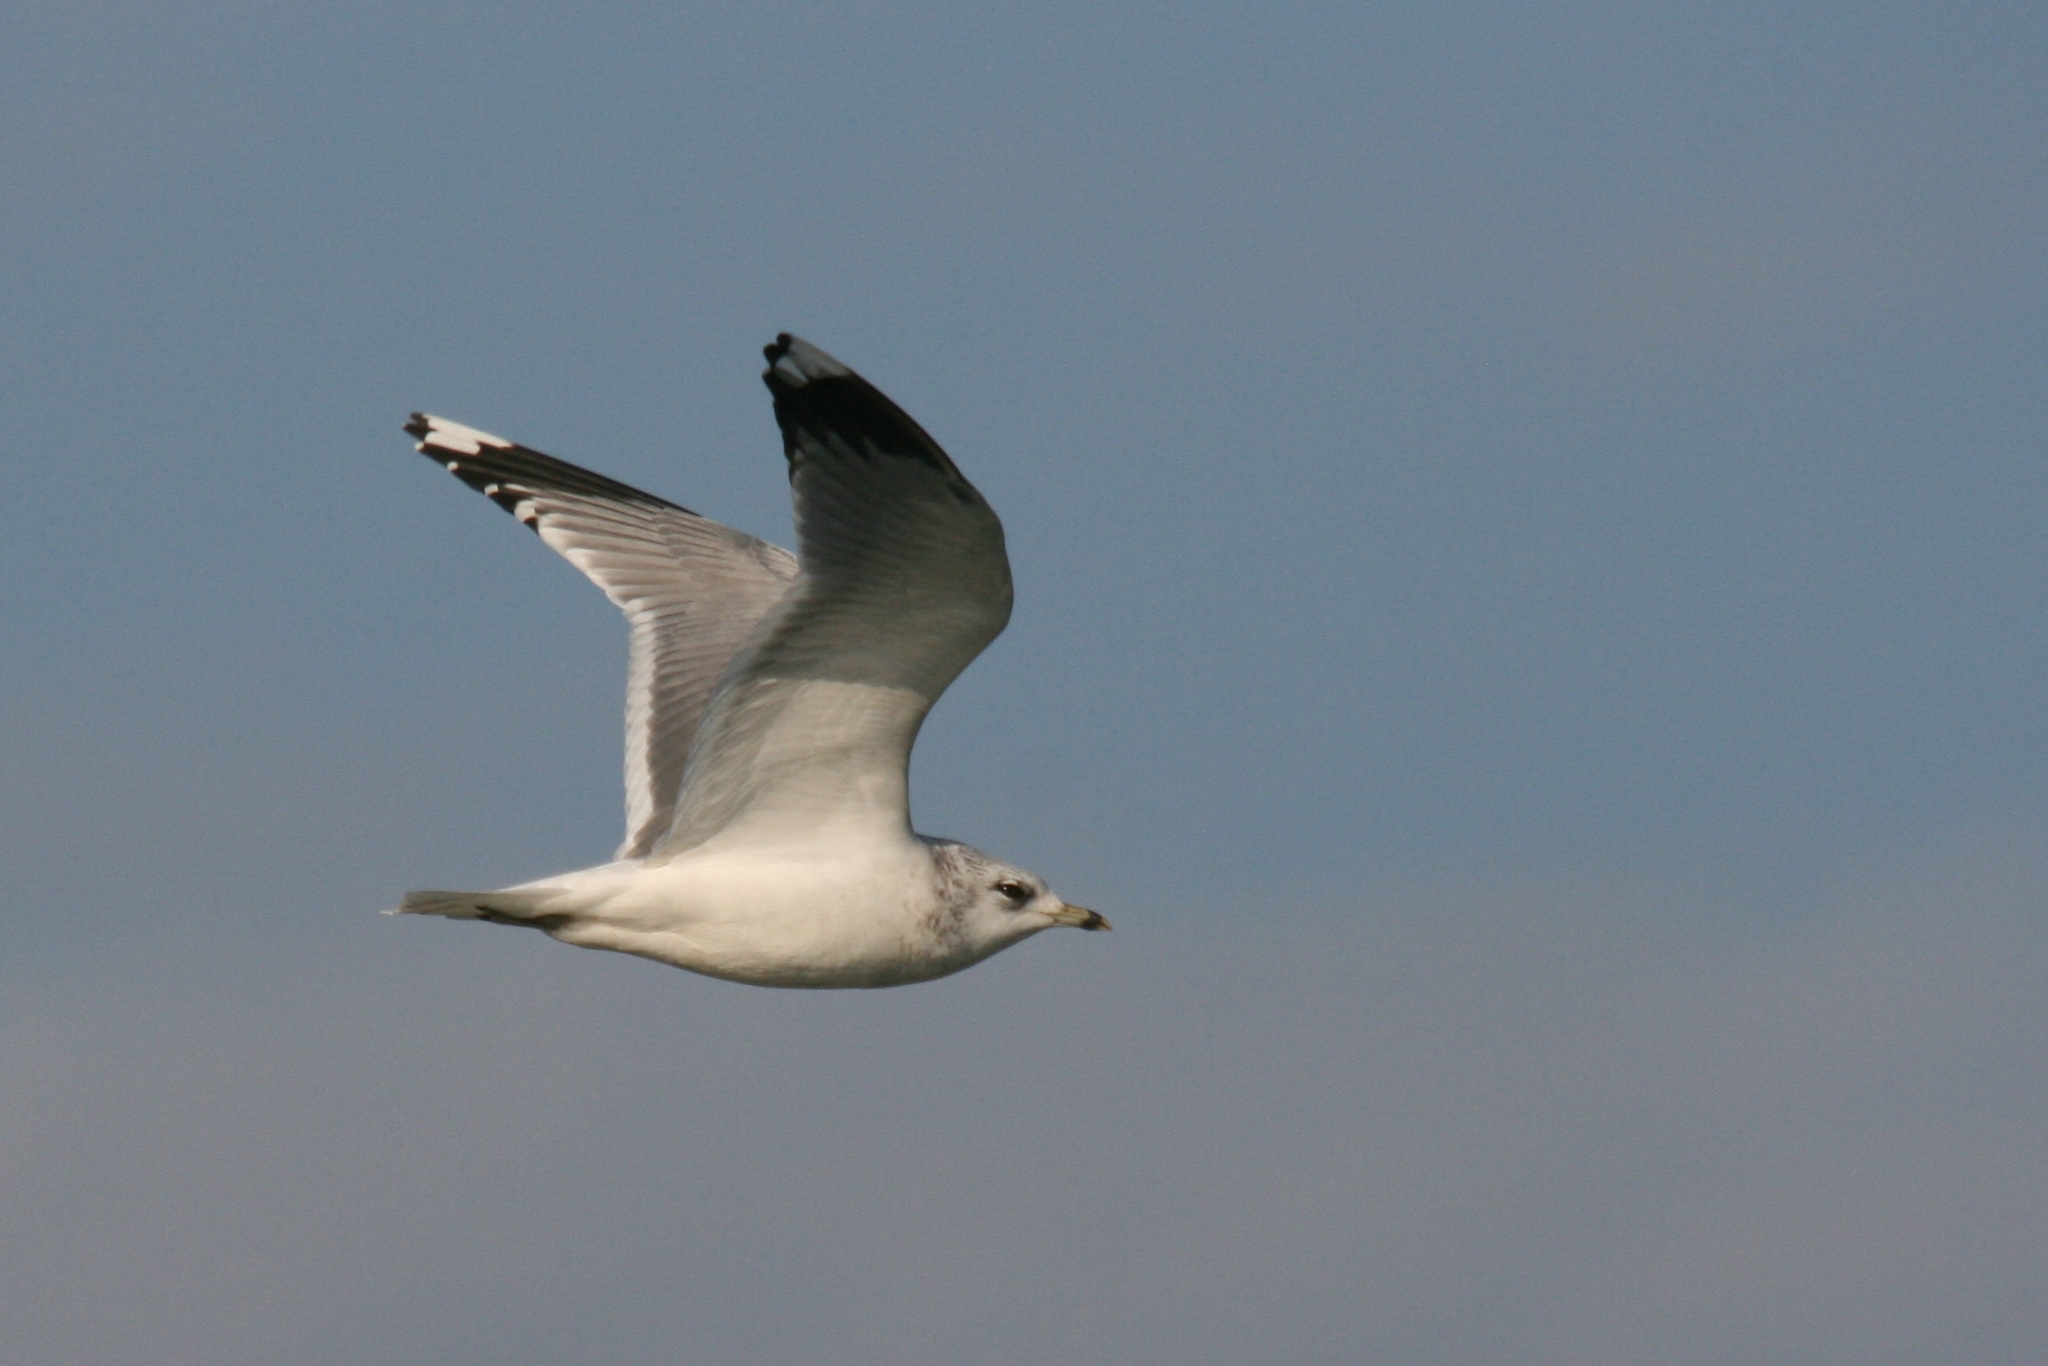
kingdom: Animalia
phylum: Chordata
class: Aves
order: Charadriiformes
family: Laridae
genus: Larus
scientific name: Larus canus
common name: Mew gull
